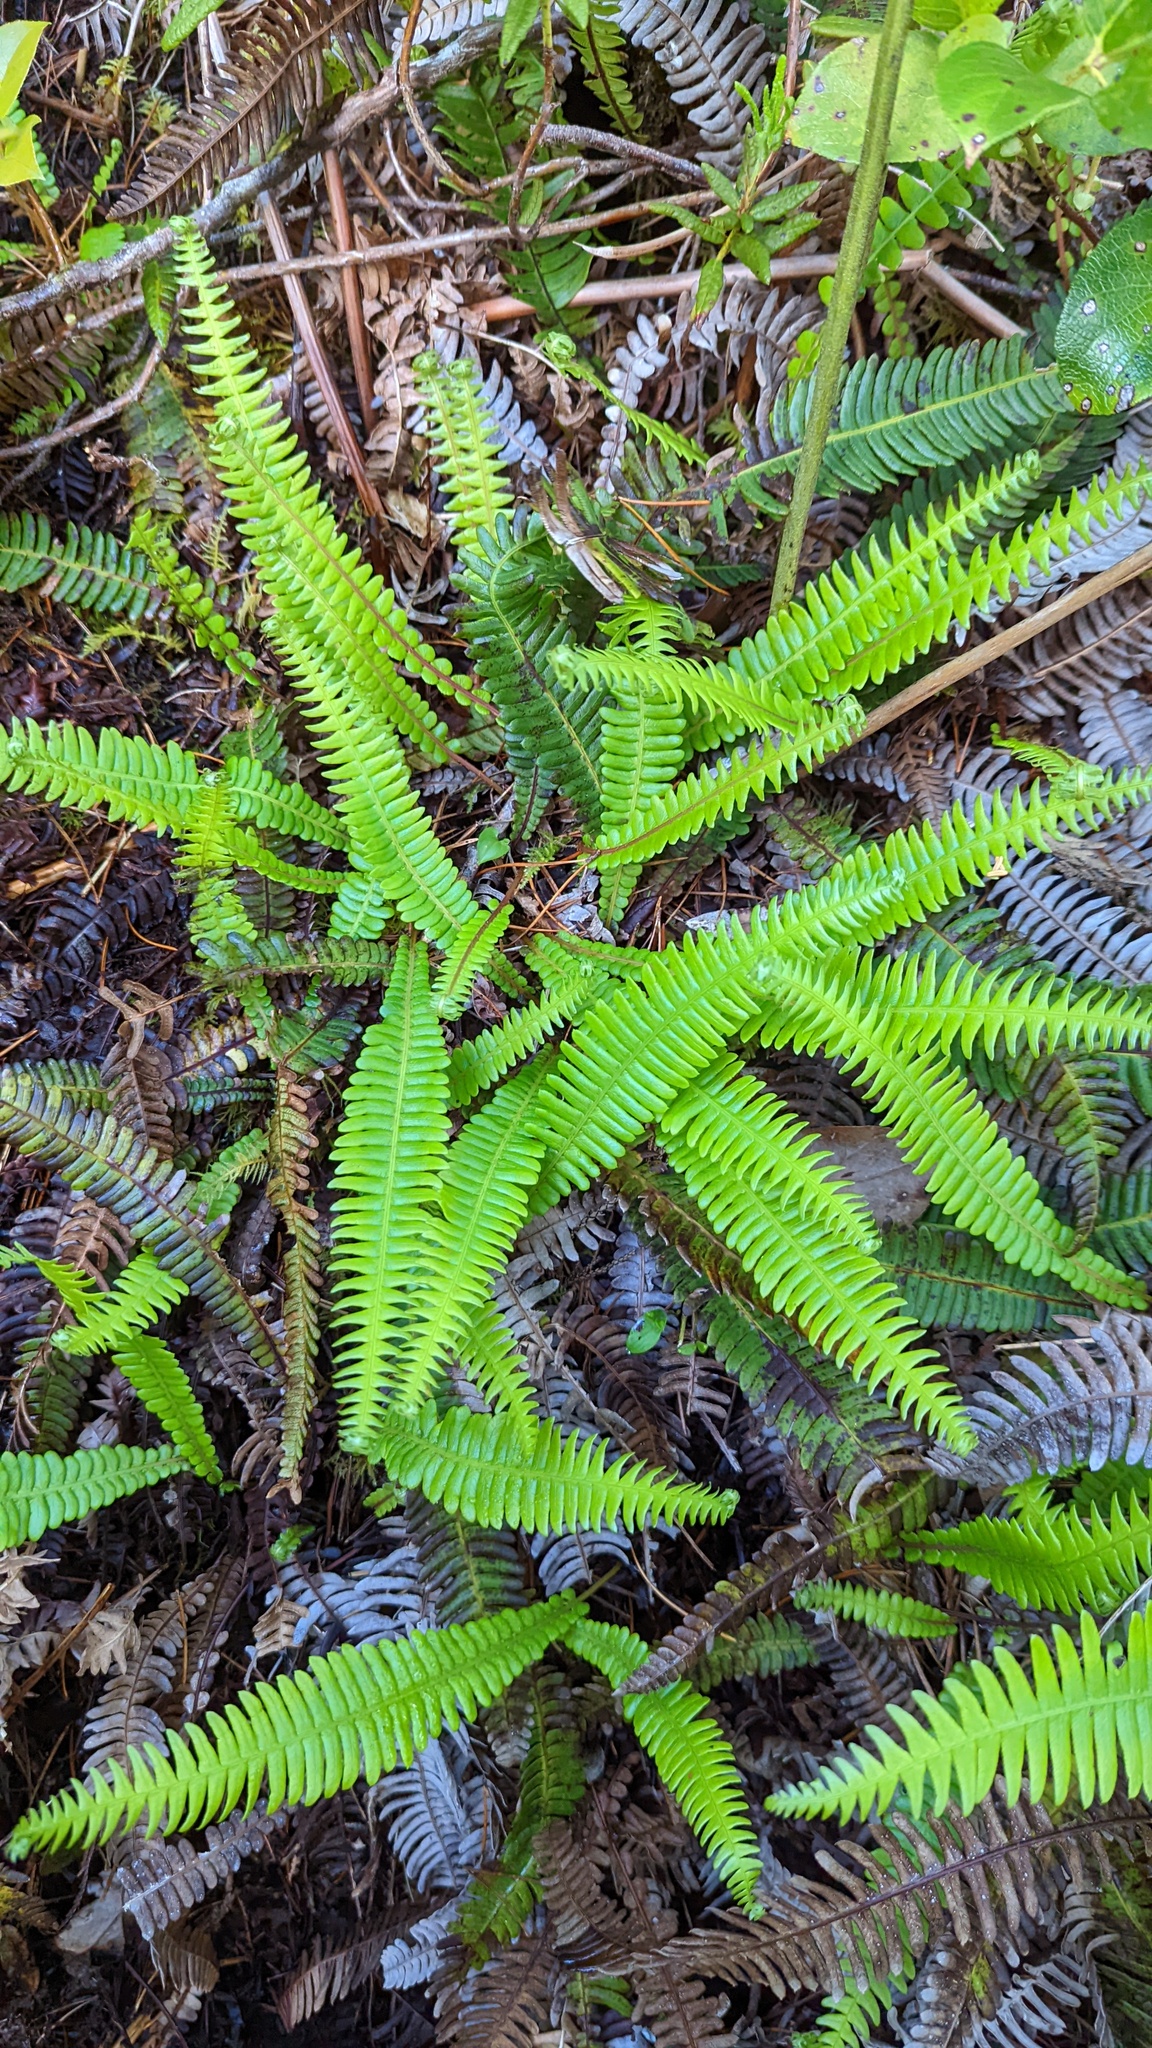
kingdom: Plantae
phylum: Tracheophyta
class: Polypodiopsida
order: Polypodiales
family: Blechnaceae
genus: Struthiopteris
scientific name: Struthiopteris spicant
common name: Deer fern
